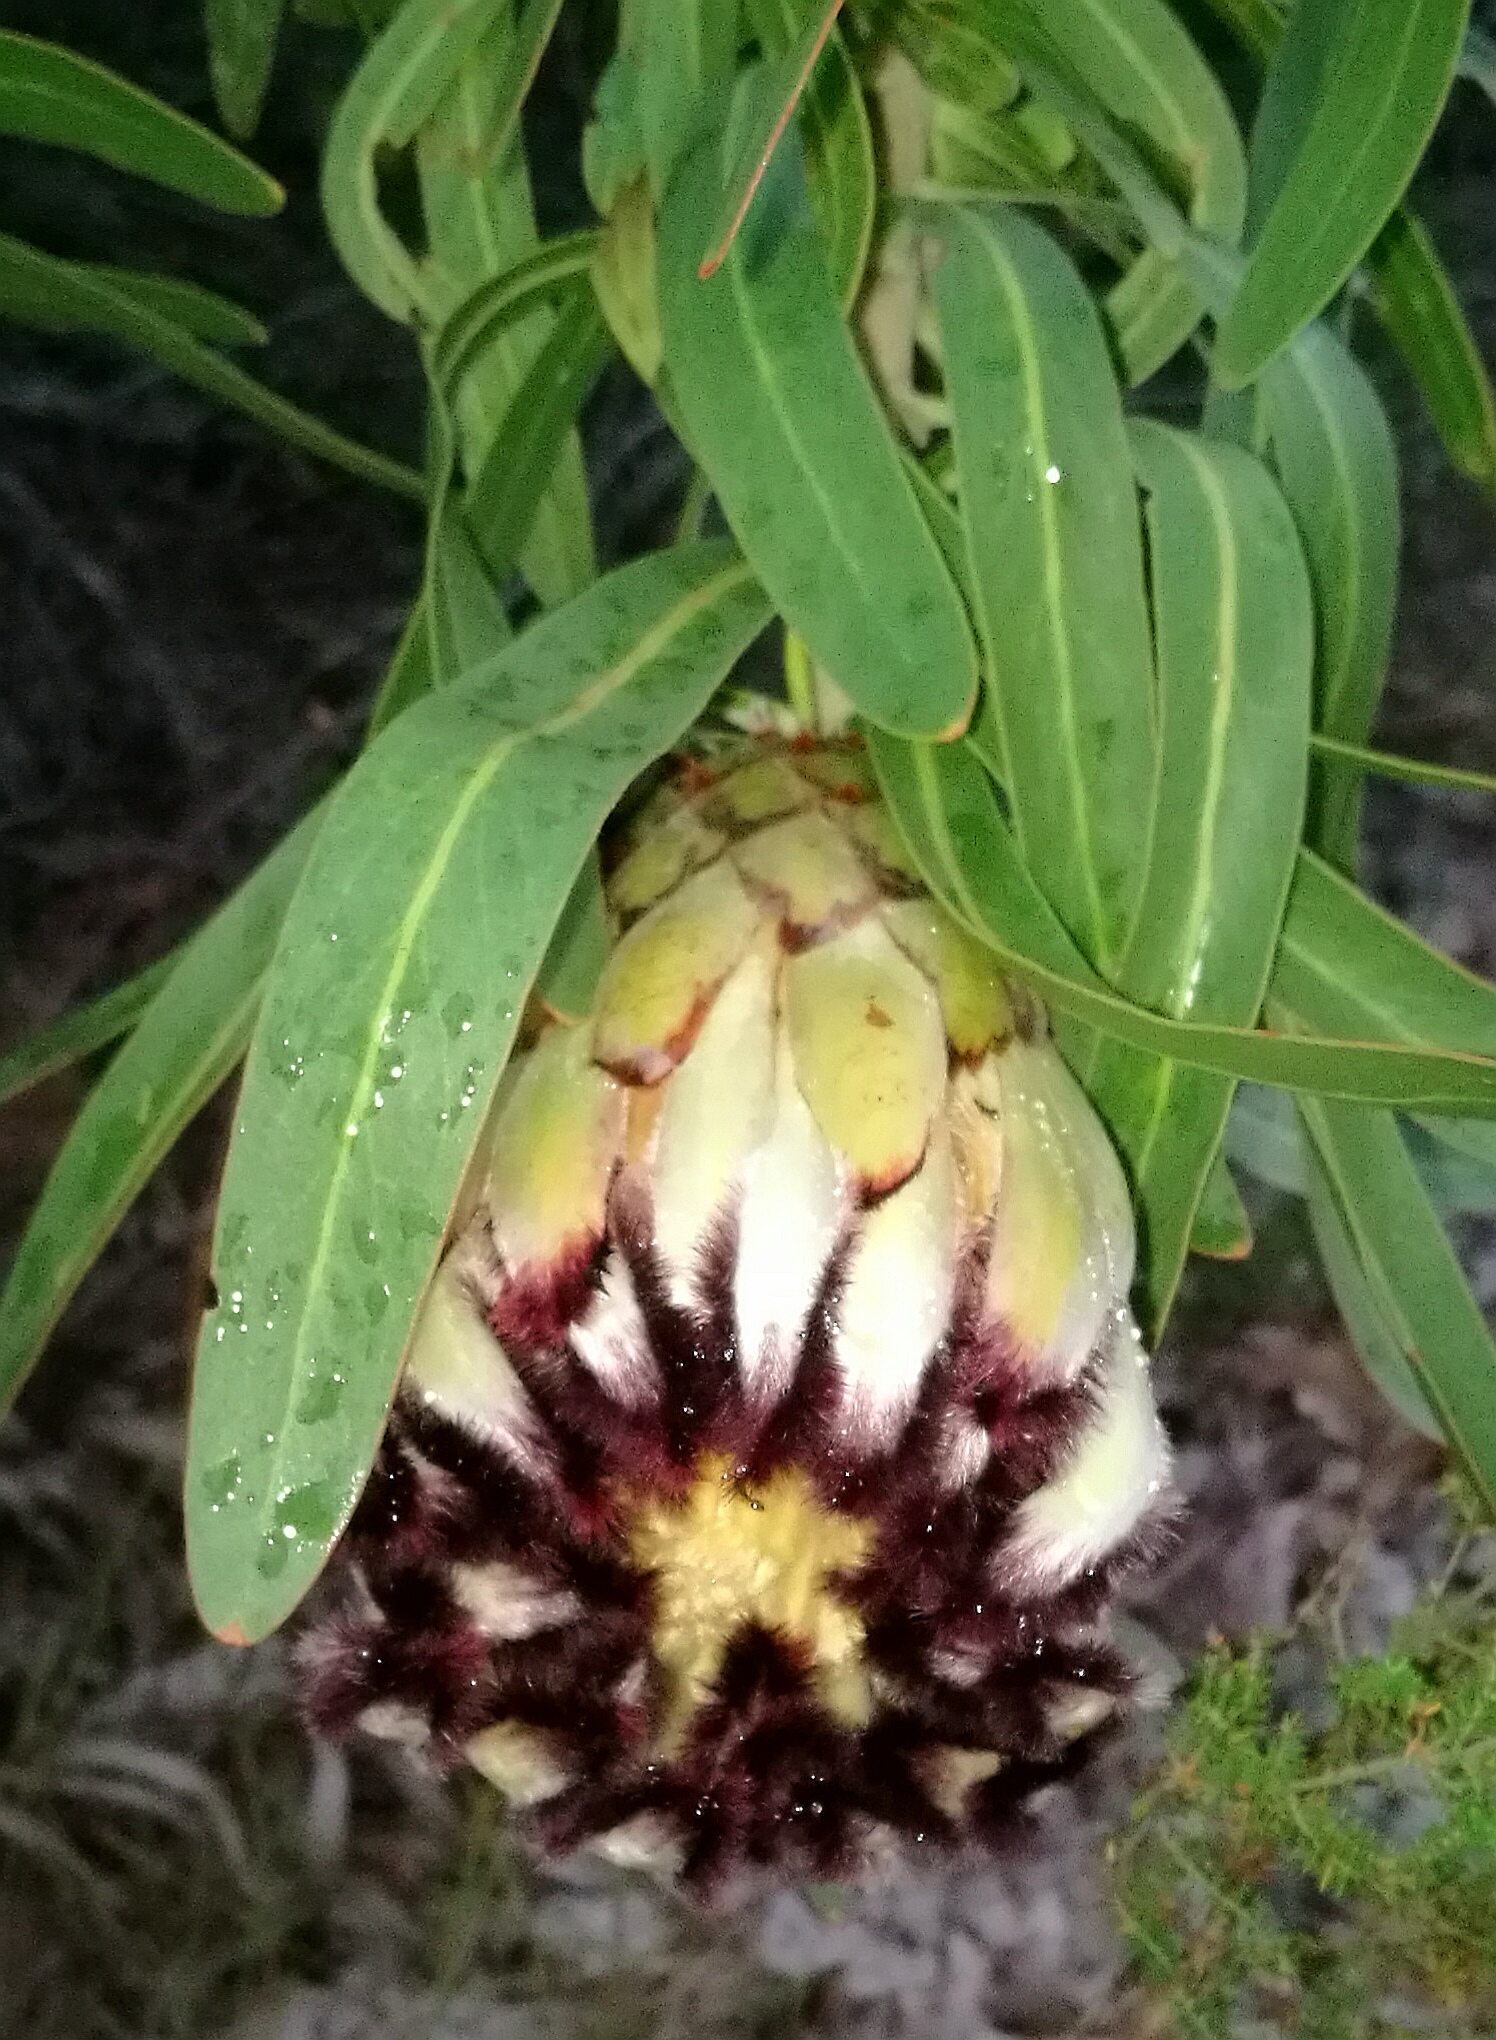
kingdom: Plantae
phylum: Tracheophyta
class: Magnoliopsida
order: Proteales
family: Proteaceae
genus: Protea
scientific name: Protea neriifolia
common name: Blue sugarbush
